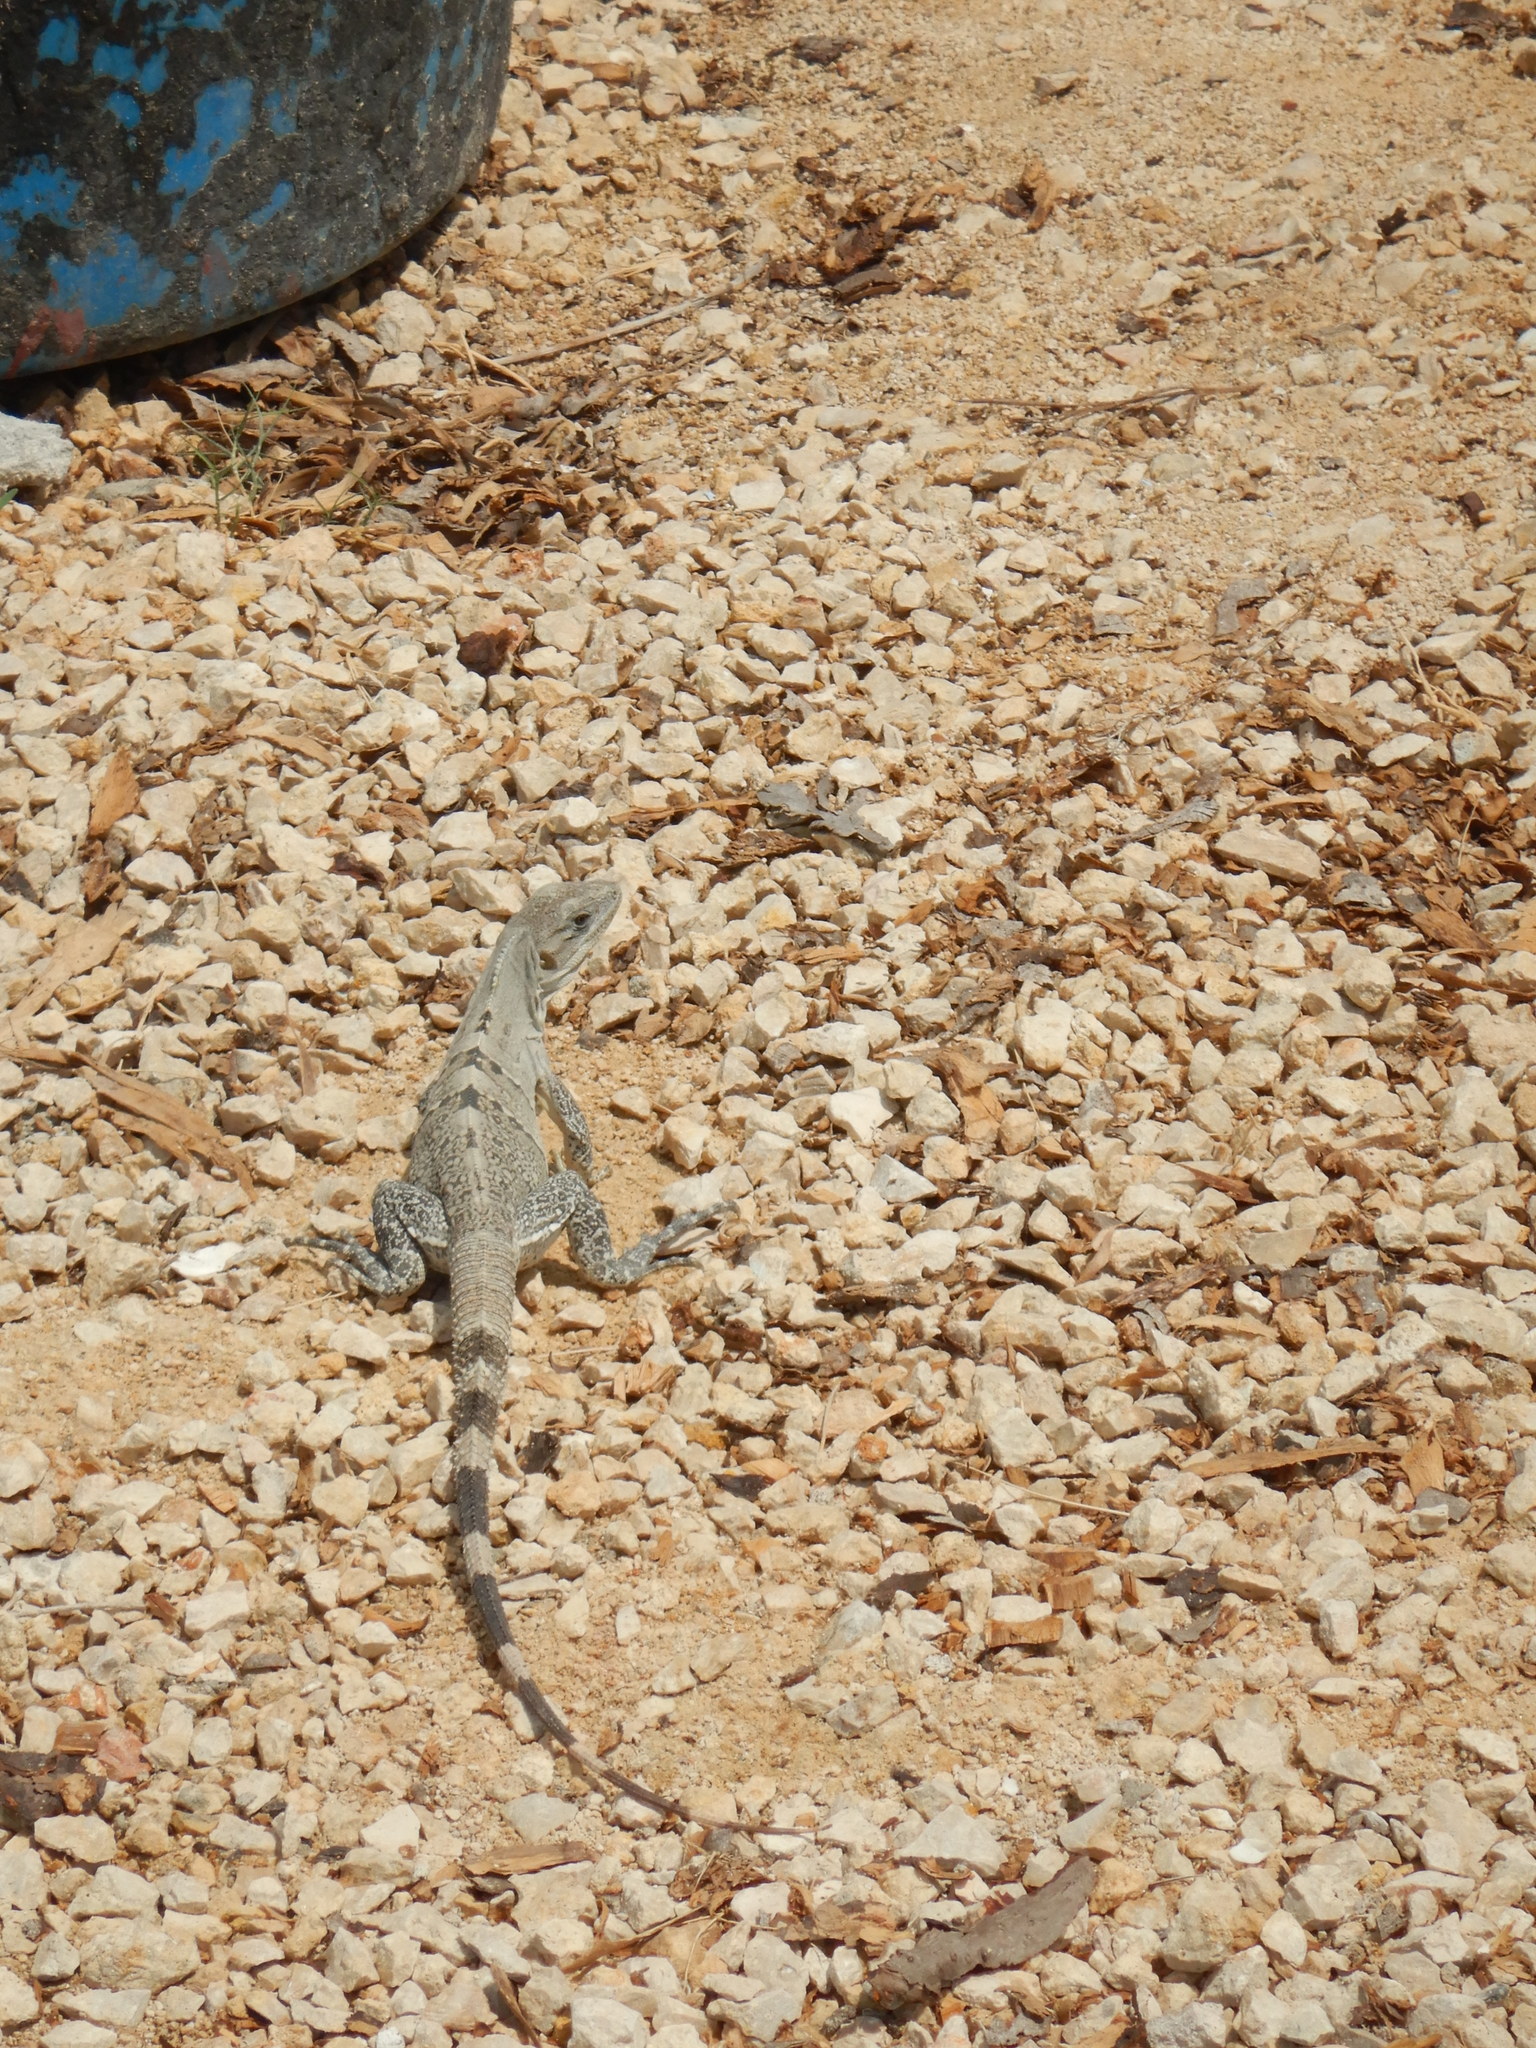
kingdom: Animalia
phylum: Chordata
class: Squamata
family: Iguanidae
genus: Ctenosaura
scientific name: Ctenosaura similis
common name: Black spiny-tailed iguana
